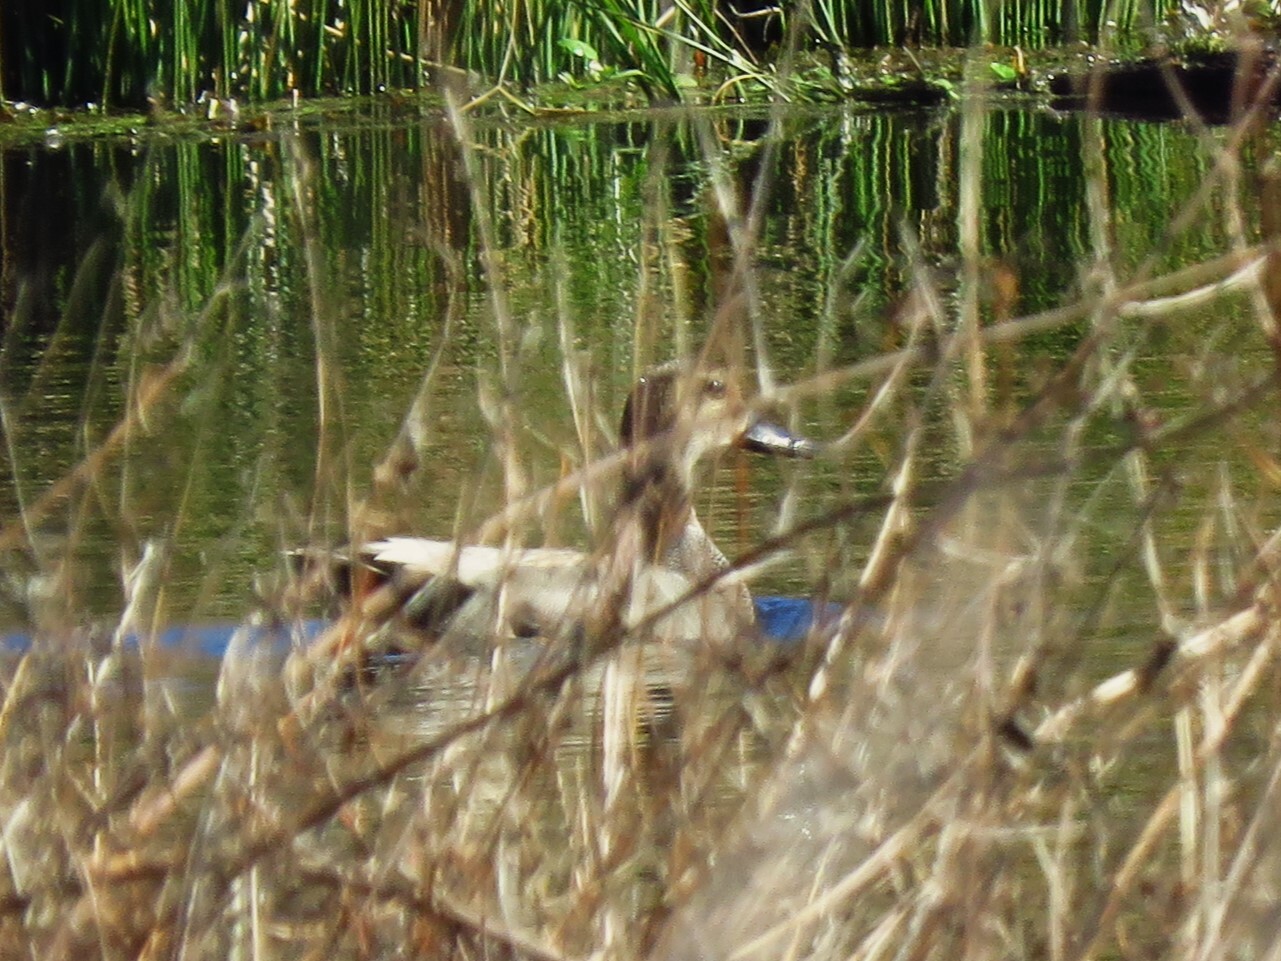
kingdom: Animalia
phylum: Chordata
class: Aves
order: Anseriformes
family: Anatidae
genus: Mareca
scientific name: Mareca strepera
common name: Gadwall
